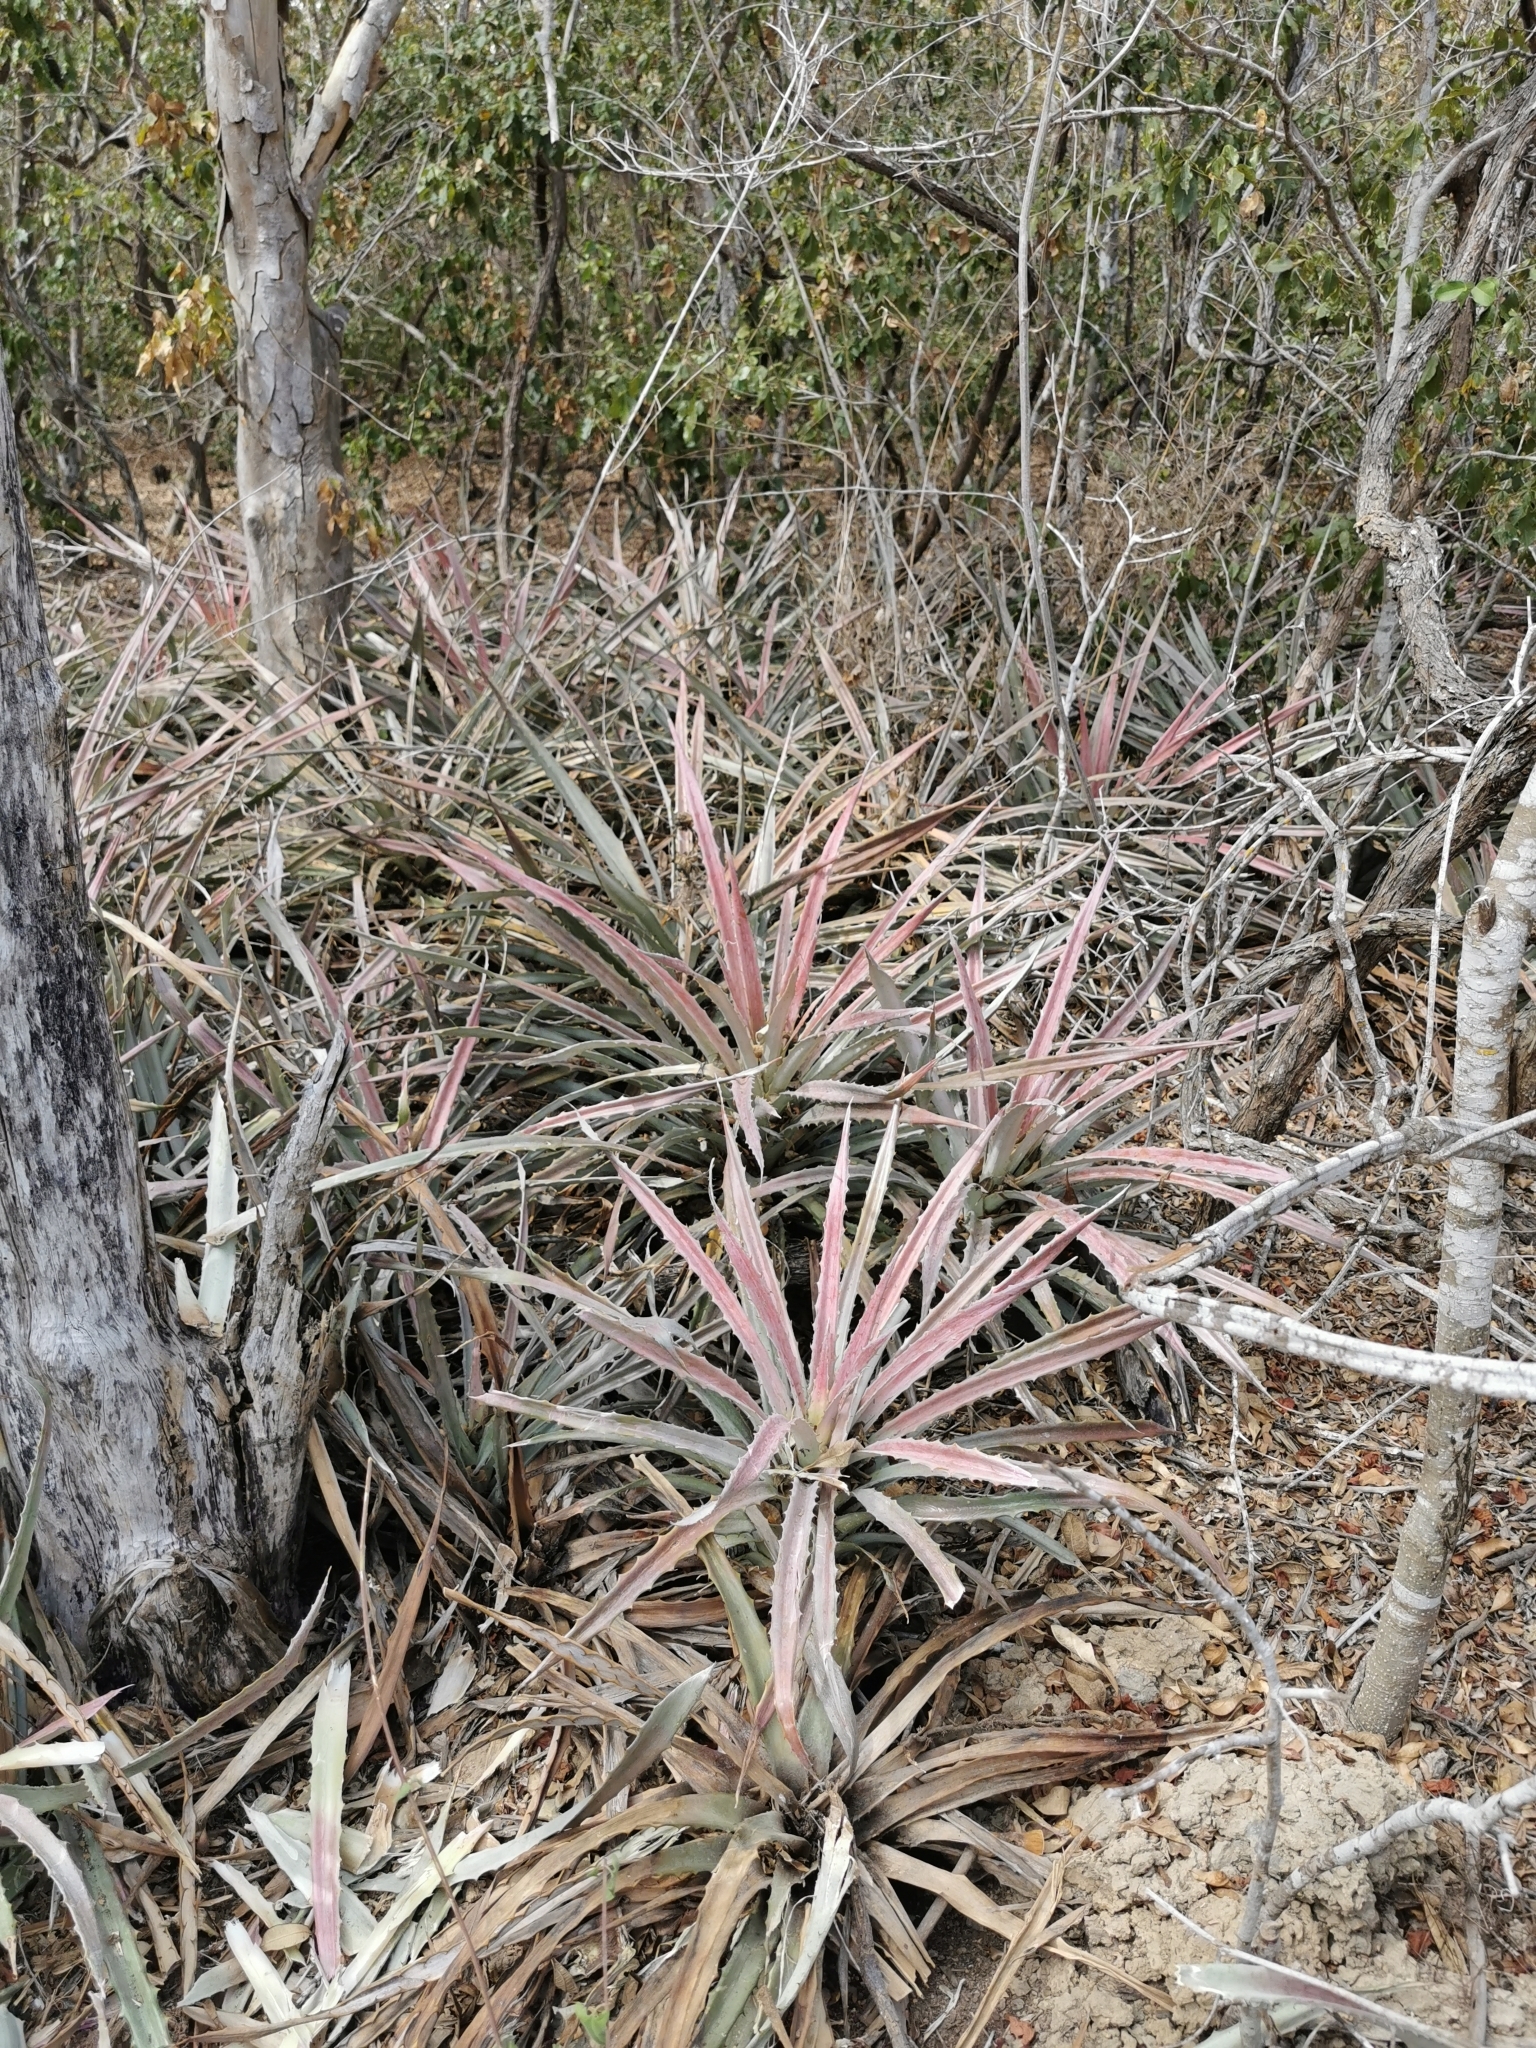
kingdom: Plantae
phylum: Tracheophyta
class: Liliopsida
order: Poales
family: Bromeliaceae
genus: Bromelia
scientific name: Bromelia pinguin
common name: Pinguin
